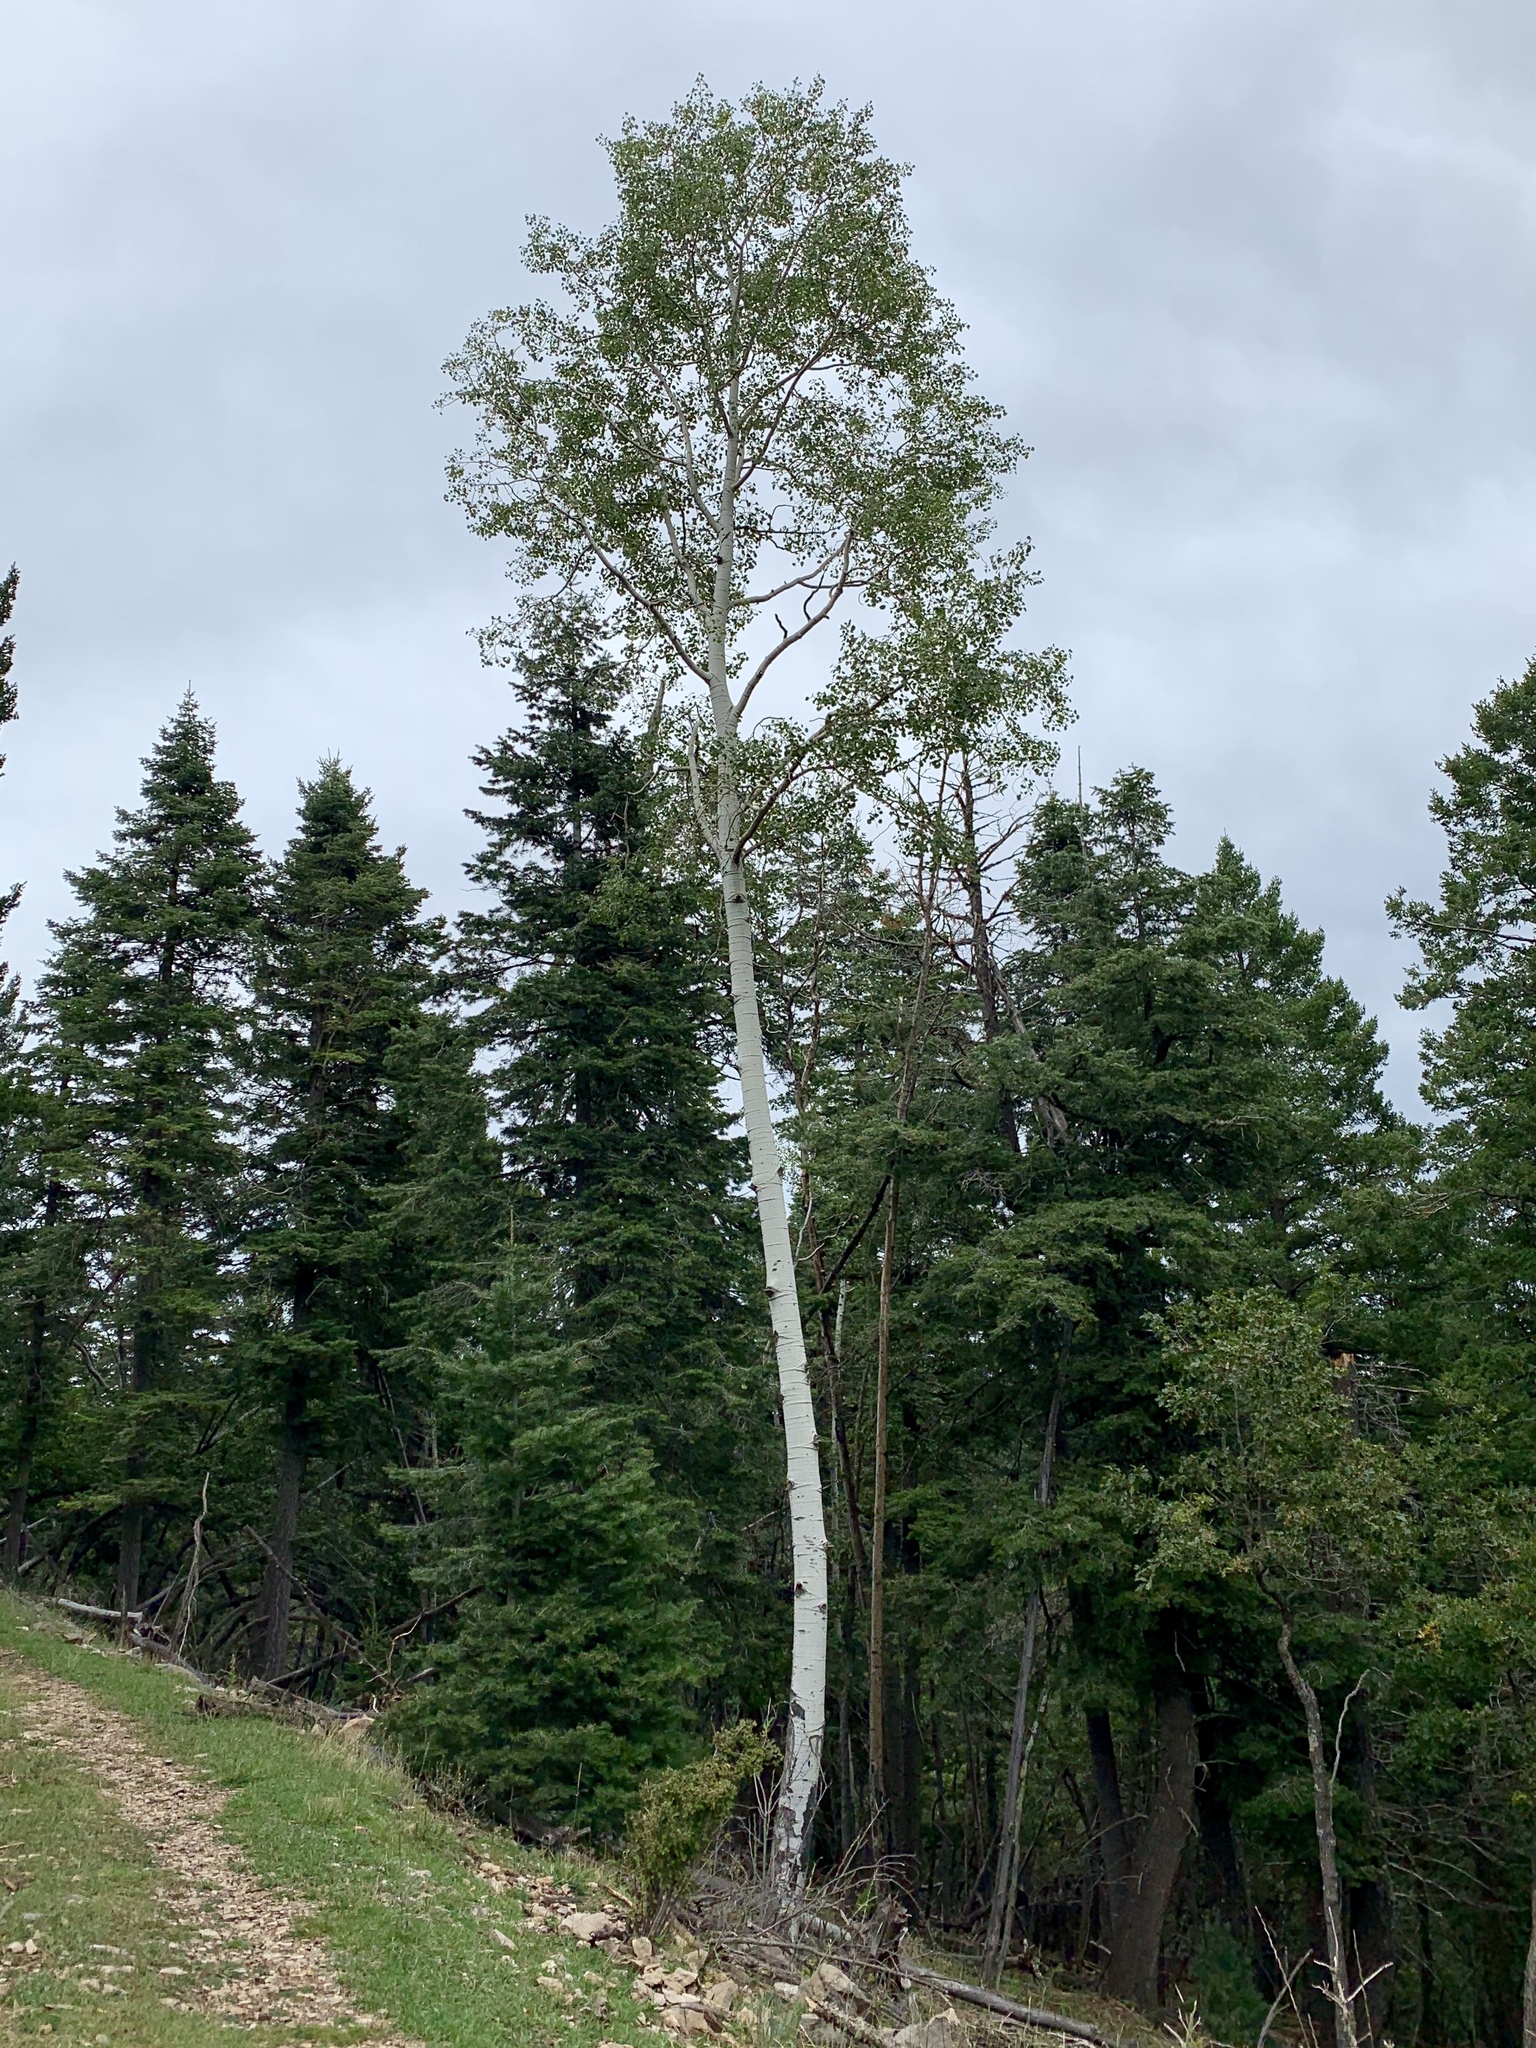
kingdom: Plantae
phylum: Tracheophyta
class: Magnoliopsida
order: Malpighiales
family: Salicaceae
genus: Populus
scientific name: Populus tremuloides
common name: Quaking aspen
